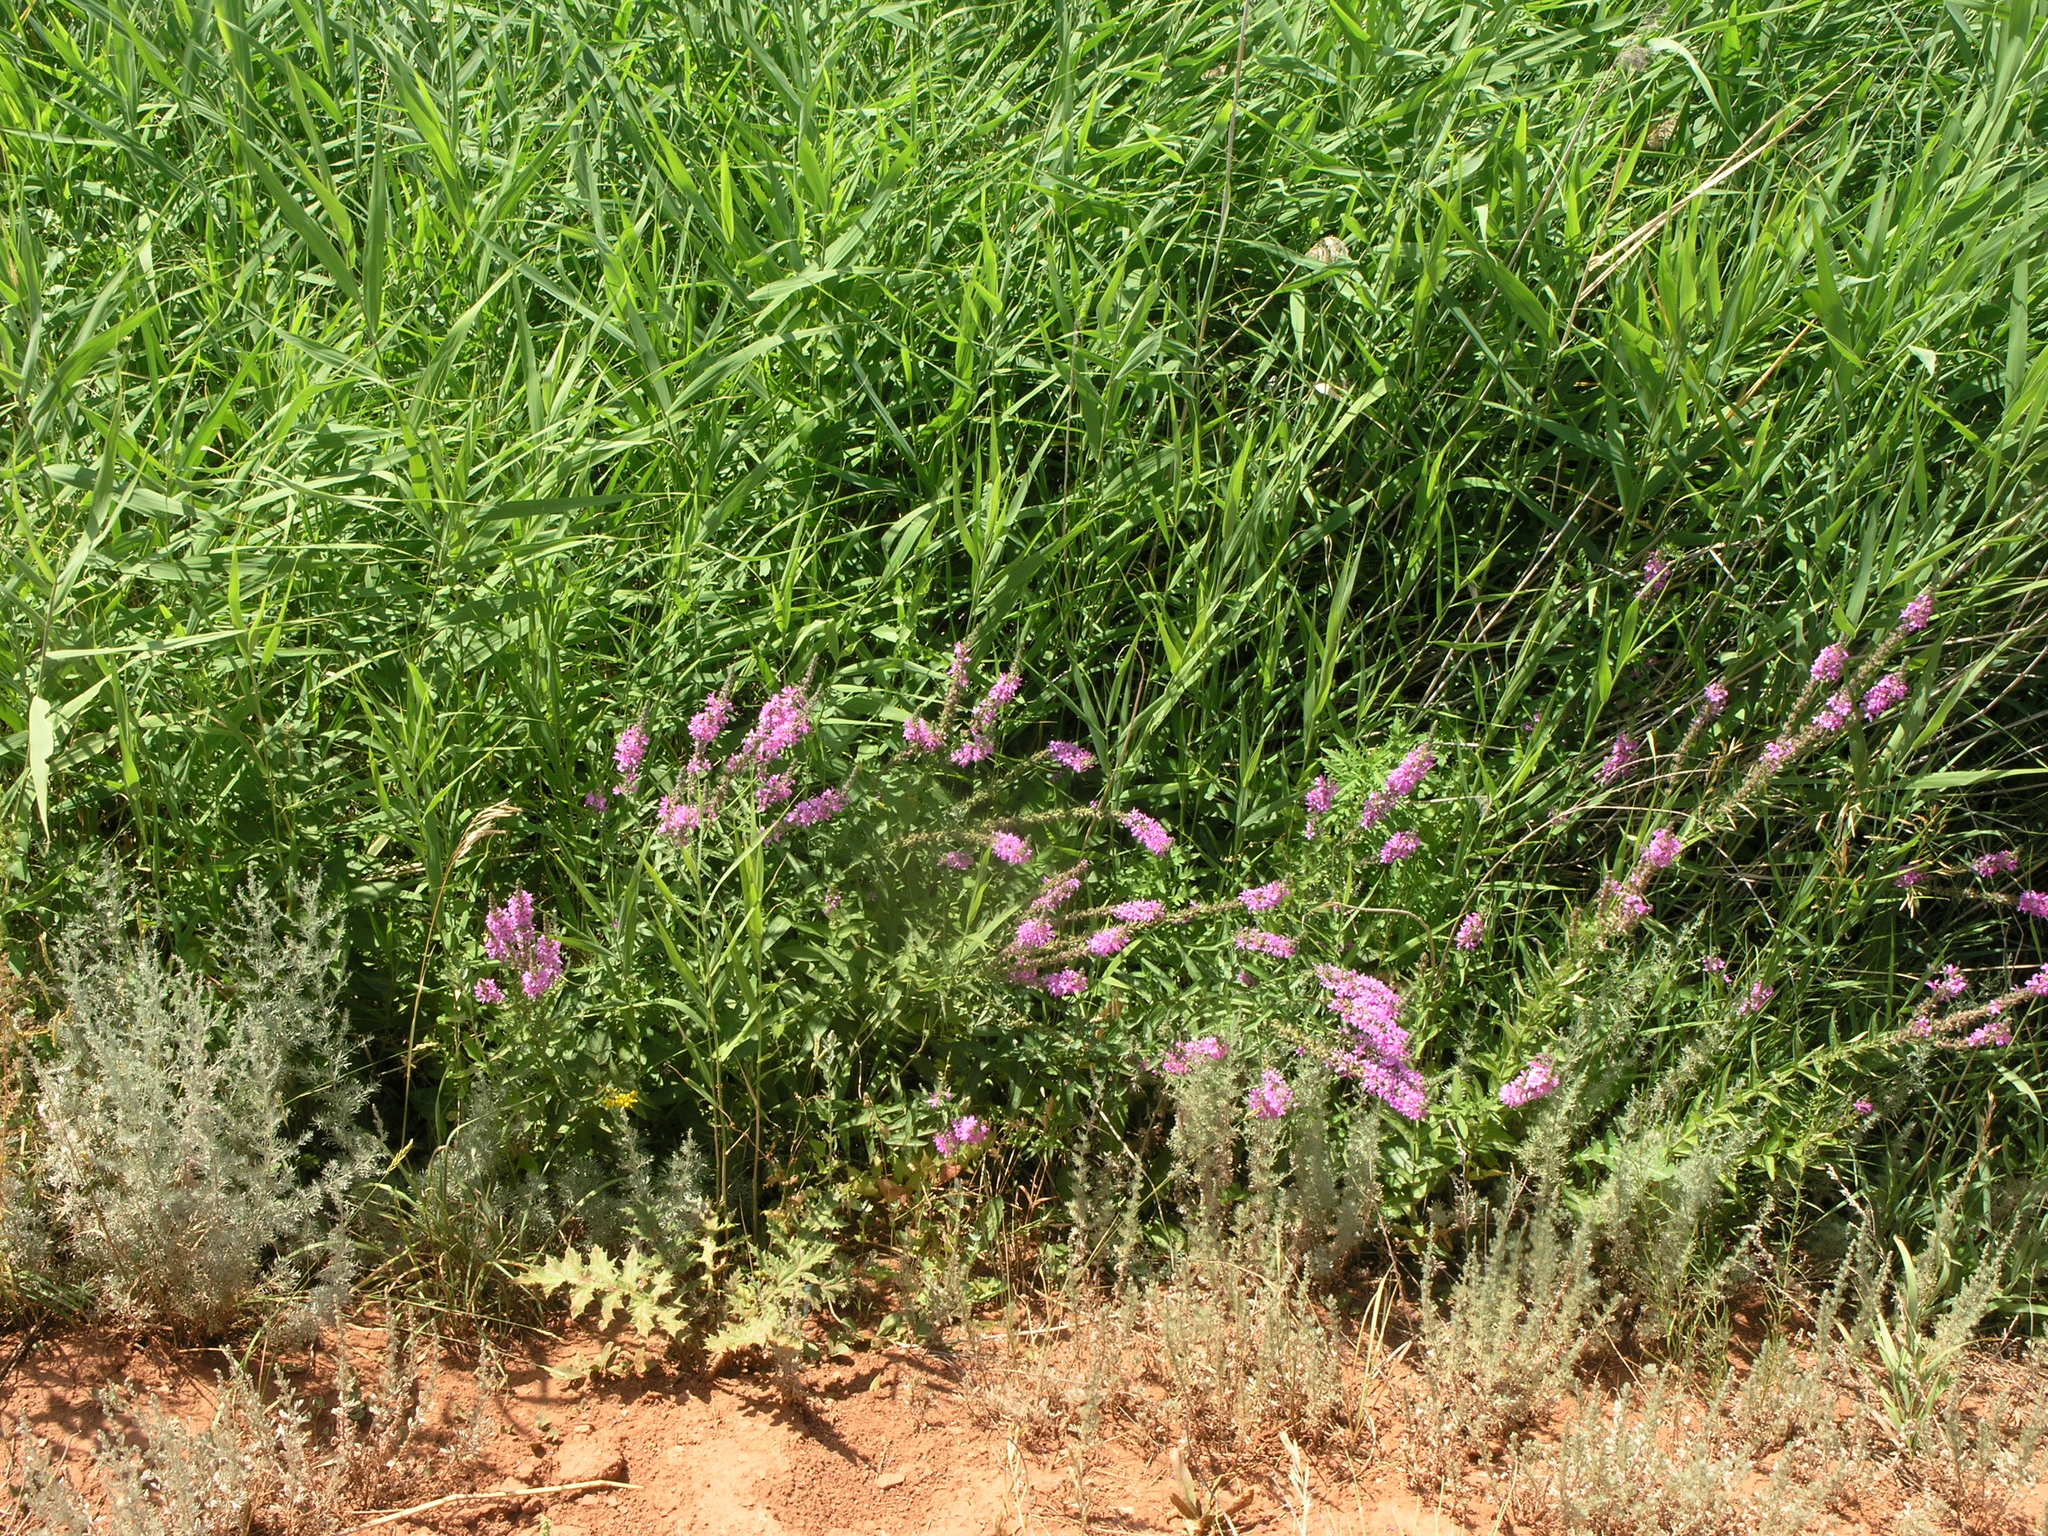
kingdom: Plantae
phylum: Tracheophyta
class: Magnoliopsida
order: Myrtales
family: Lythraceae
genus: Lythrum
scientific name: Lythrum salicaria
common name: Purple loosestrife
